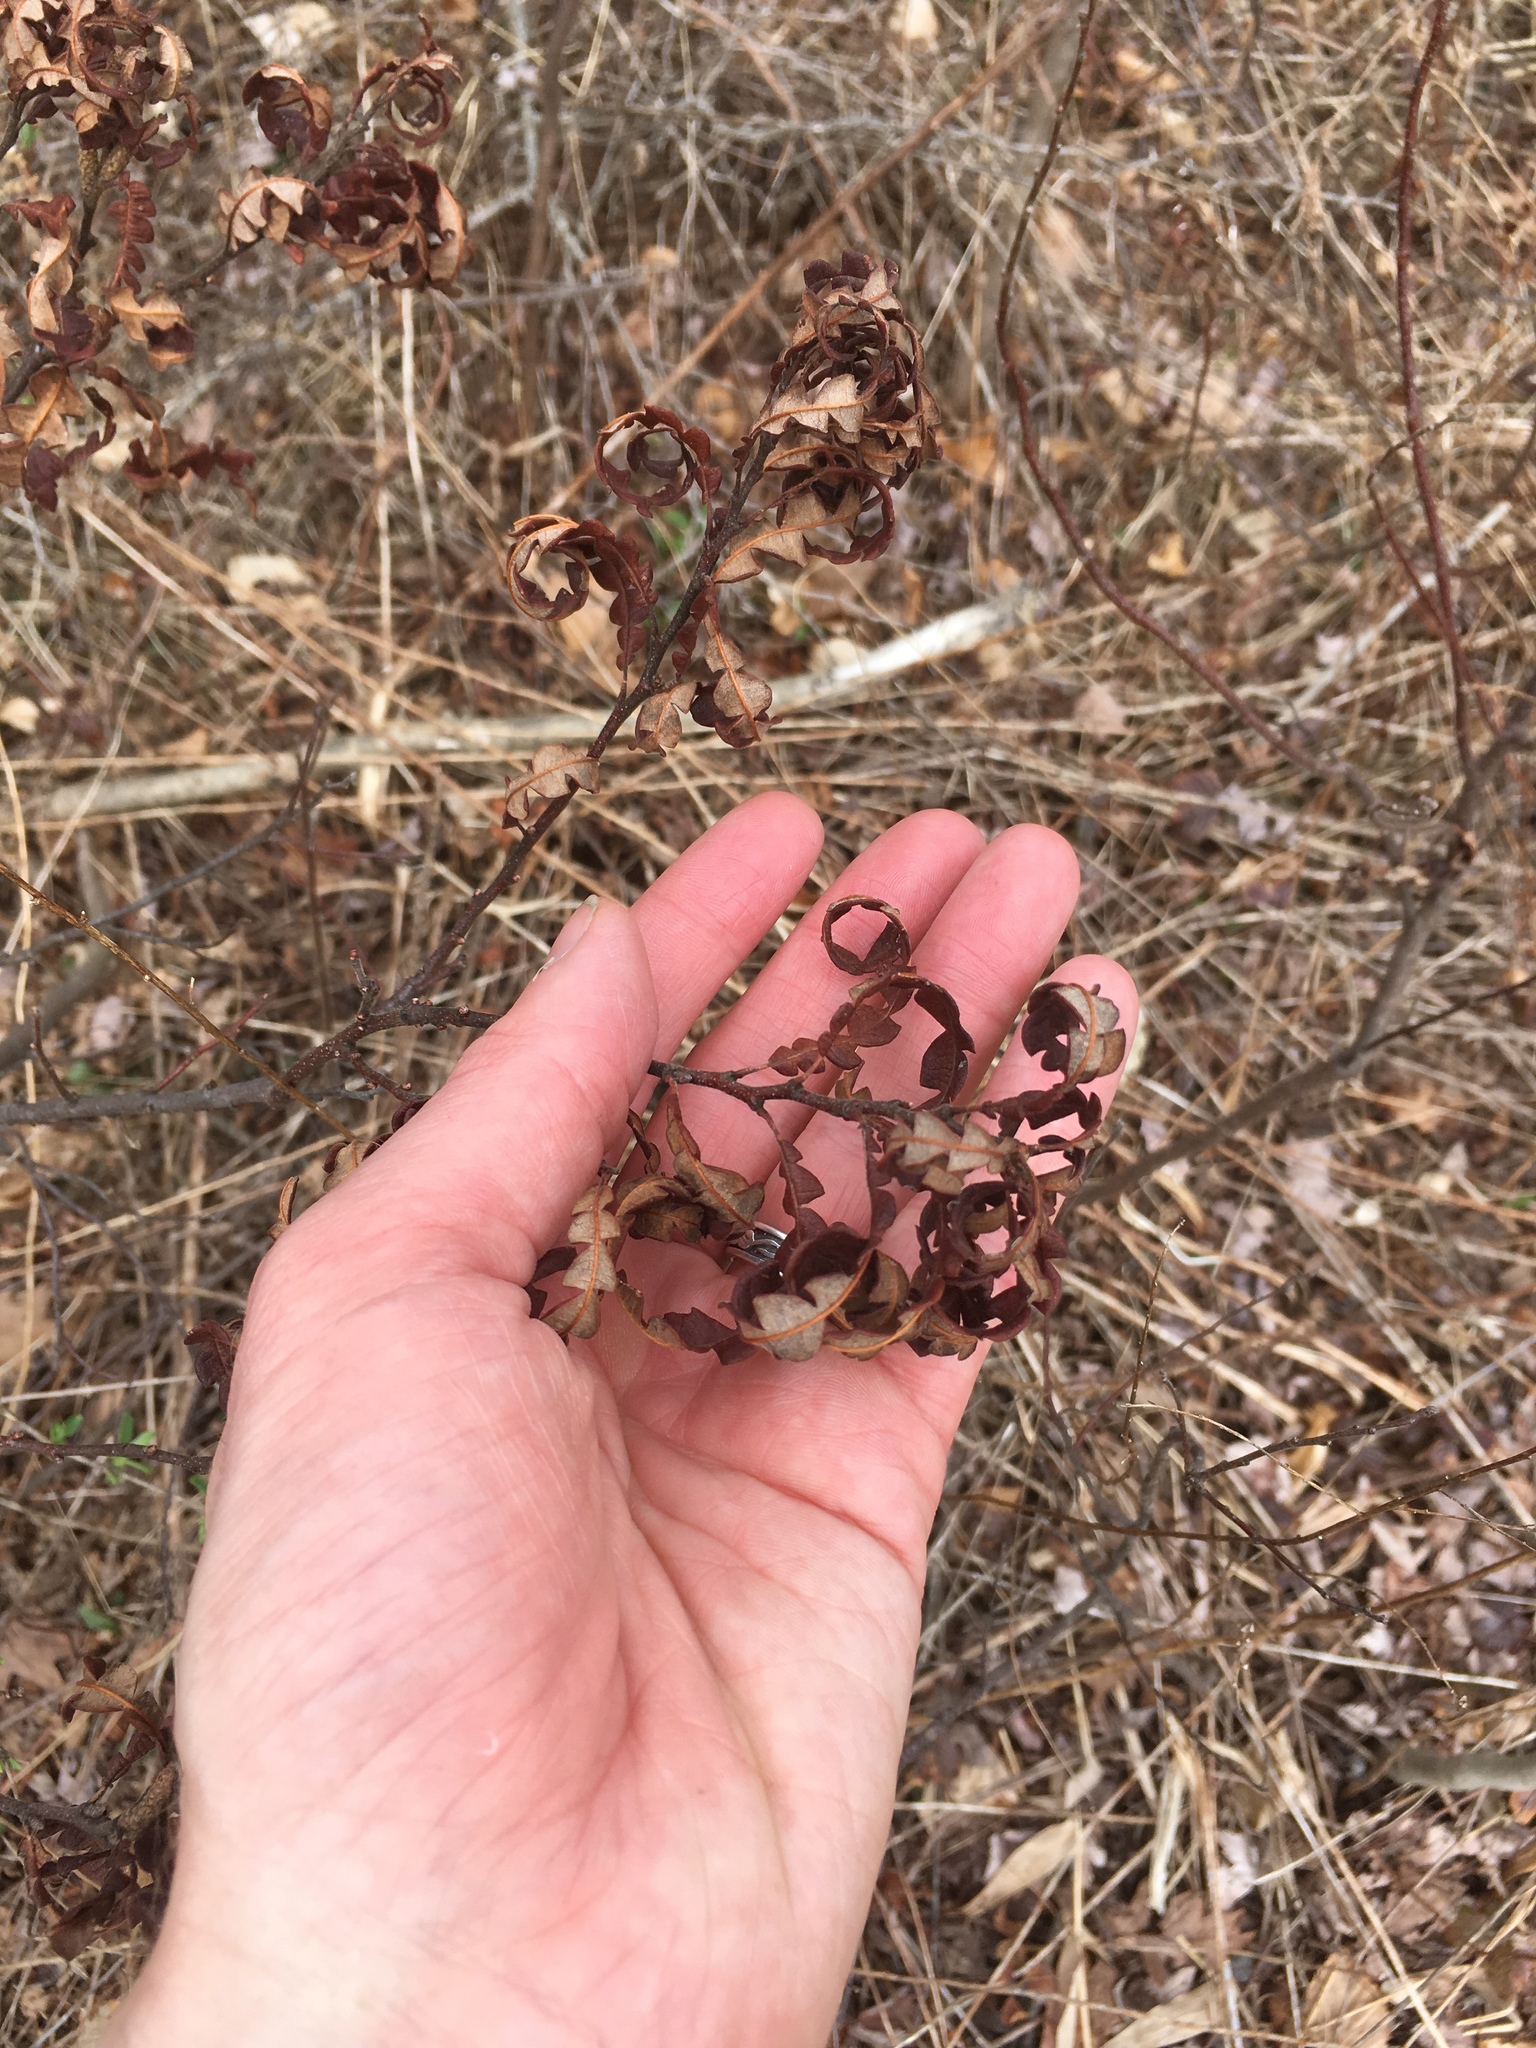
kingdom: Plantae
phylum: Tracheophyta
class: Magnoliopsida
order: Fagales
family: Myricaceae
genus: Comptonia
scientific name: Comptonia peregrina
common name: Sweet-fern
